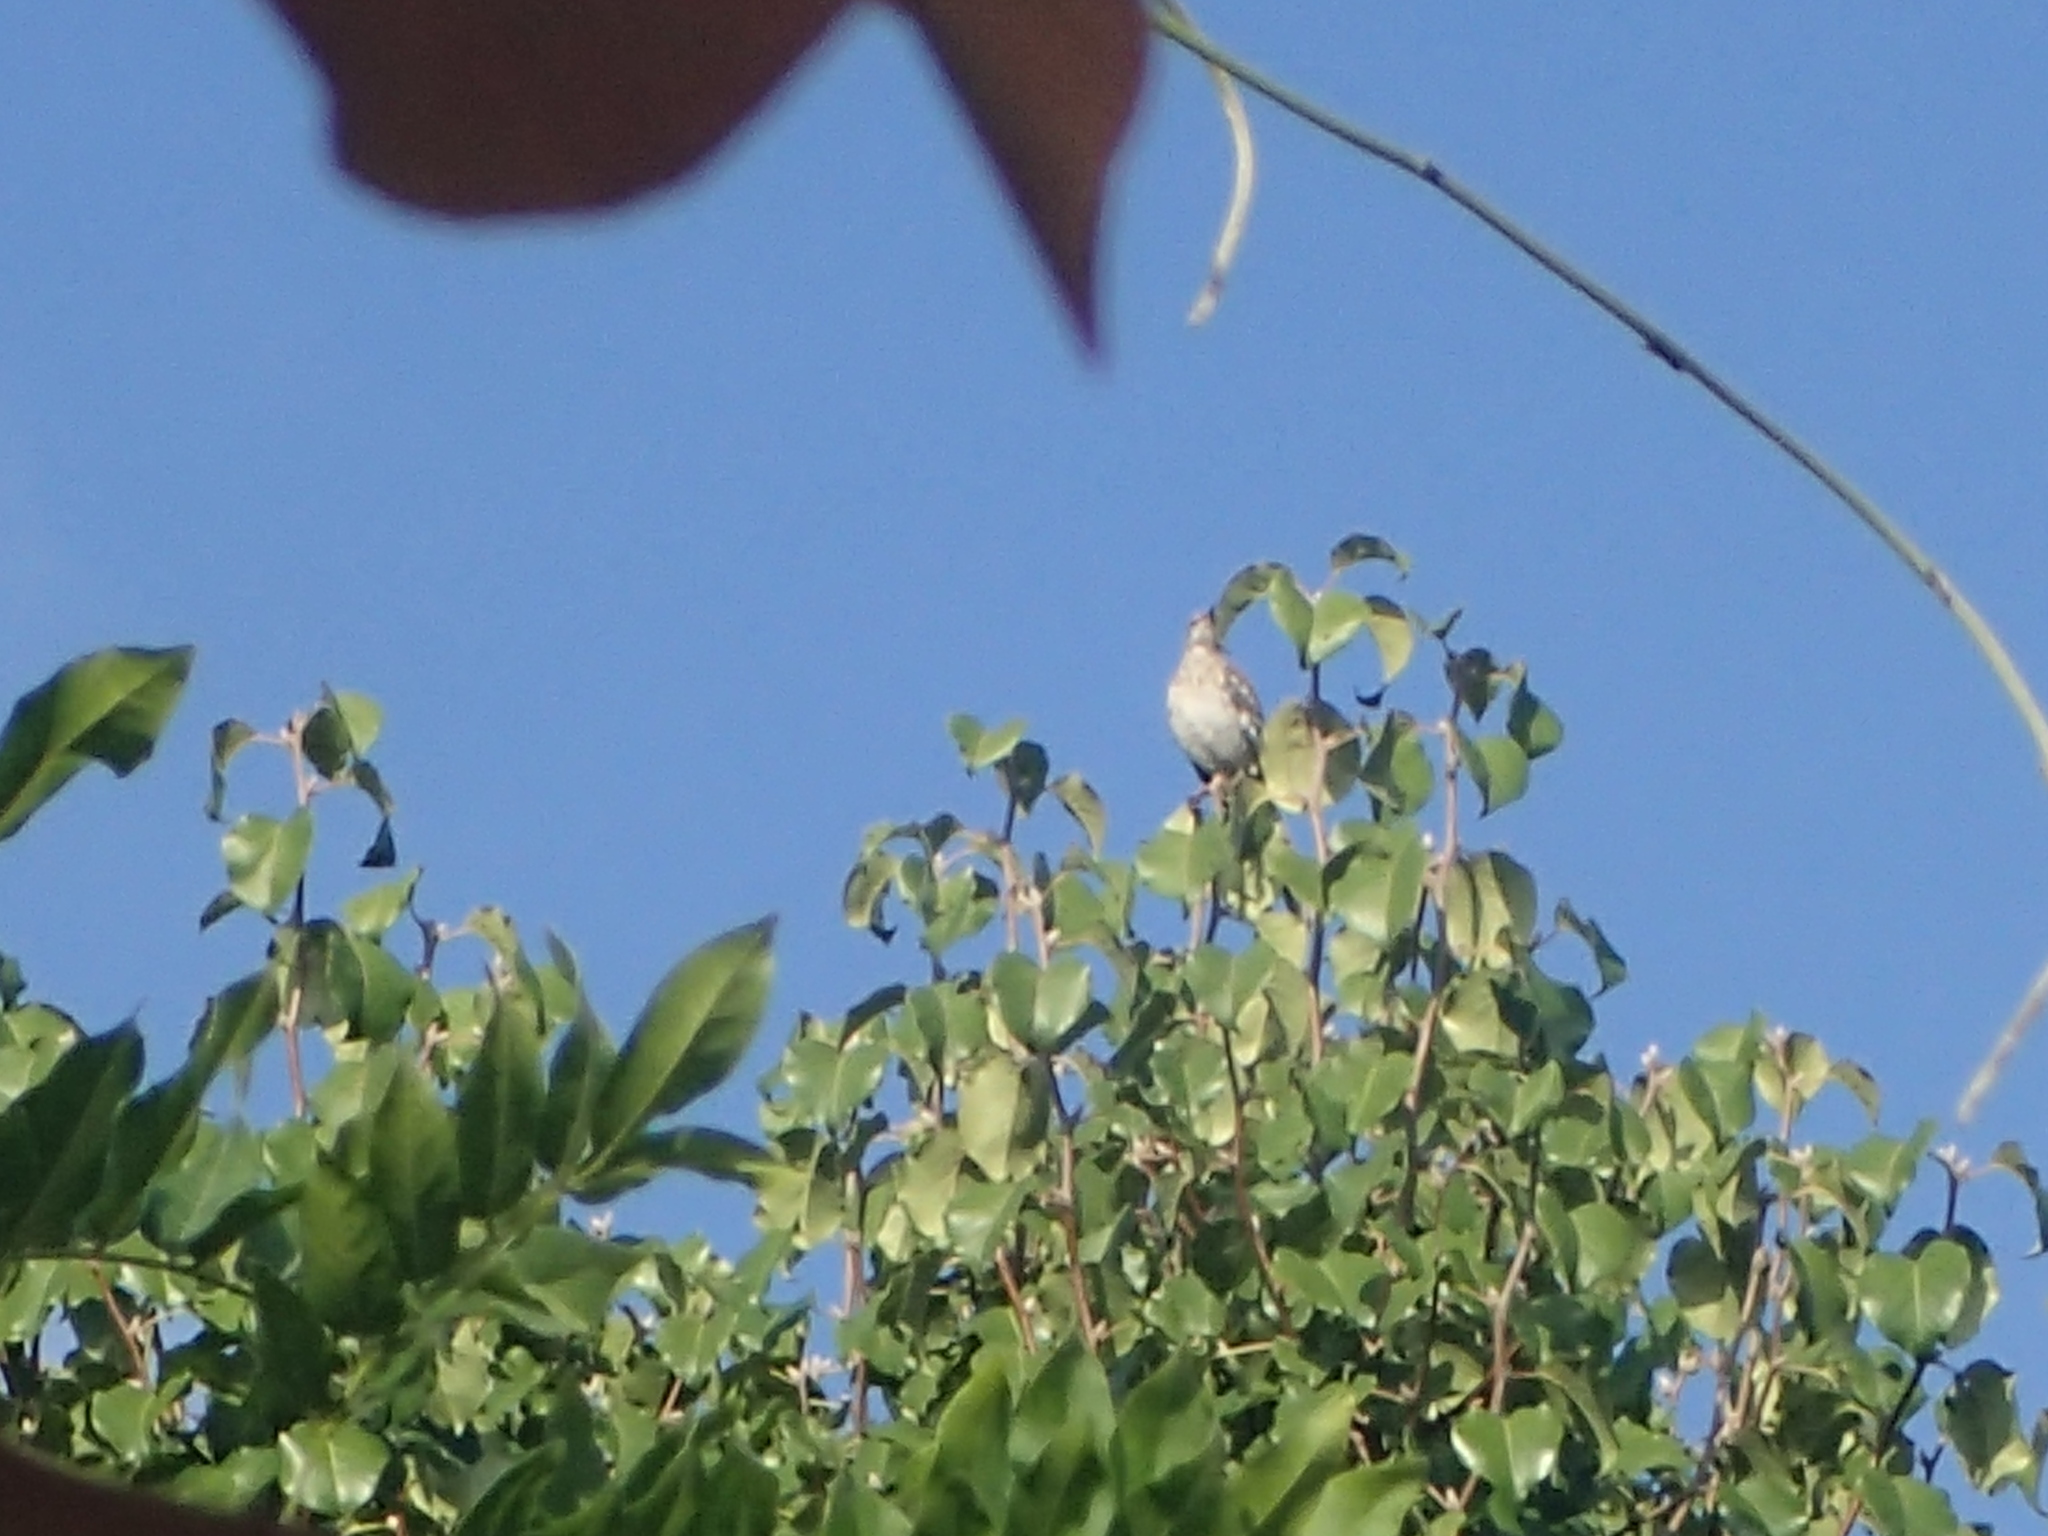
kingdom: Animalia
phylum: Chordata
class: Aves
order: Passeriformes
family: Mimidae
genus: Mimus
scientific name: Mimus polyglottos
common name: Northern mockingbird
